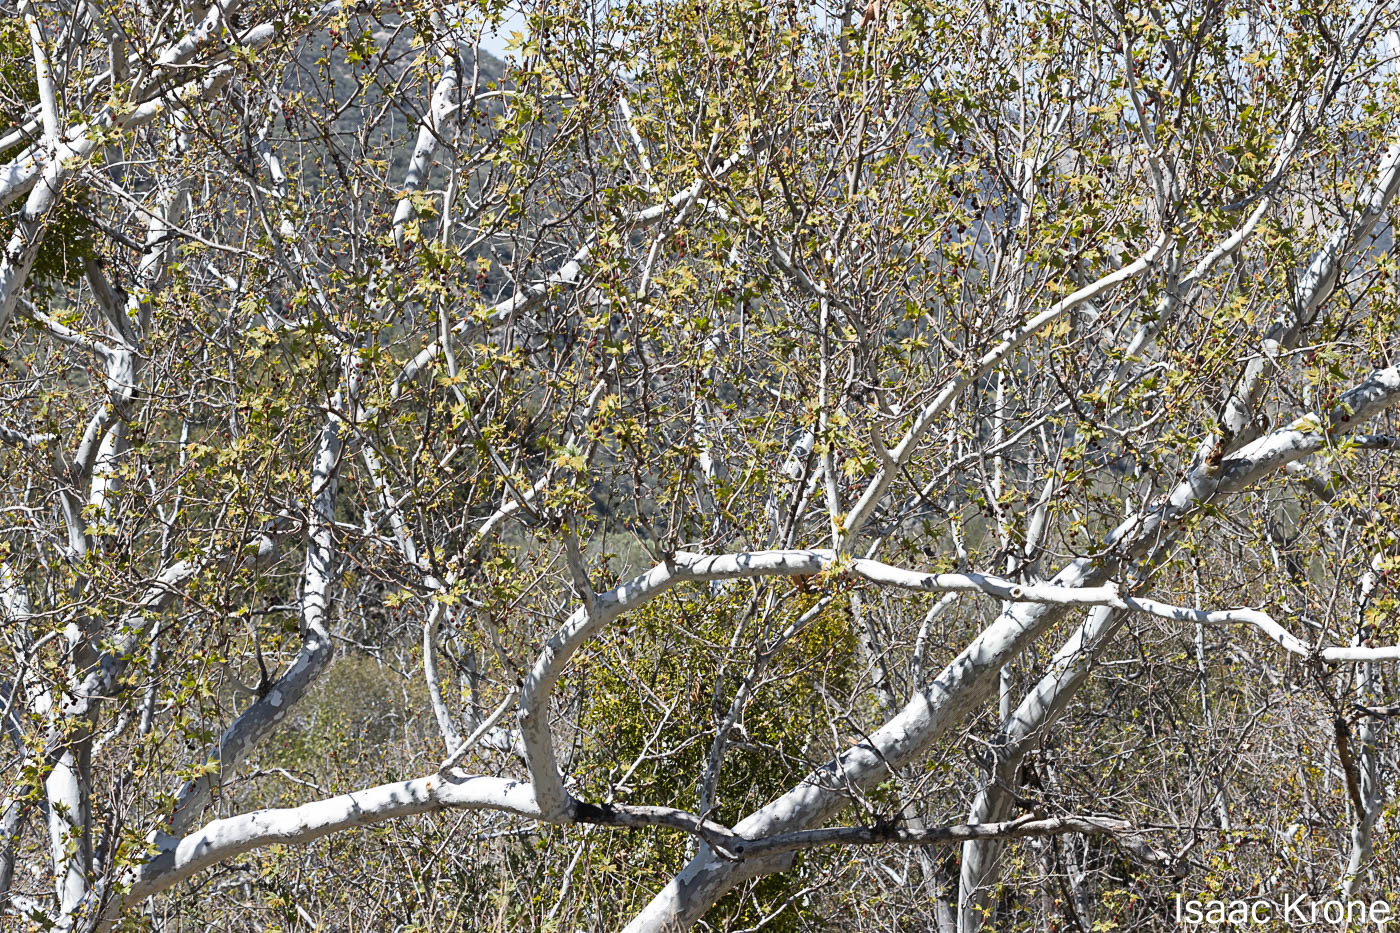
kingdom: Plantae
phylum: Tracheophyta
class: Magnoliopsida
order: Proteales
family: Platanaceae
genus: Platanus
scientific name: Platanus racemosa
